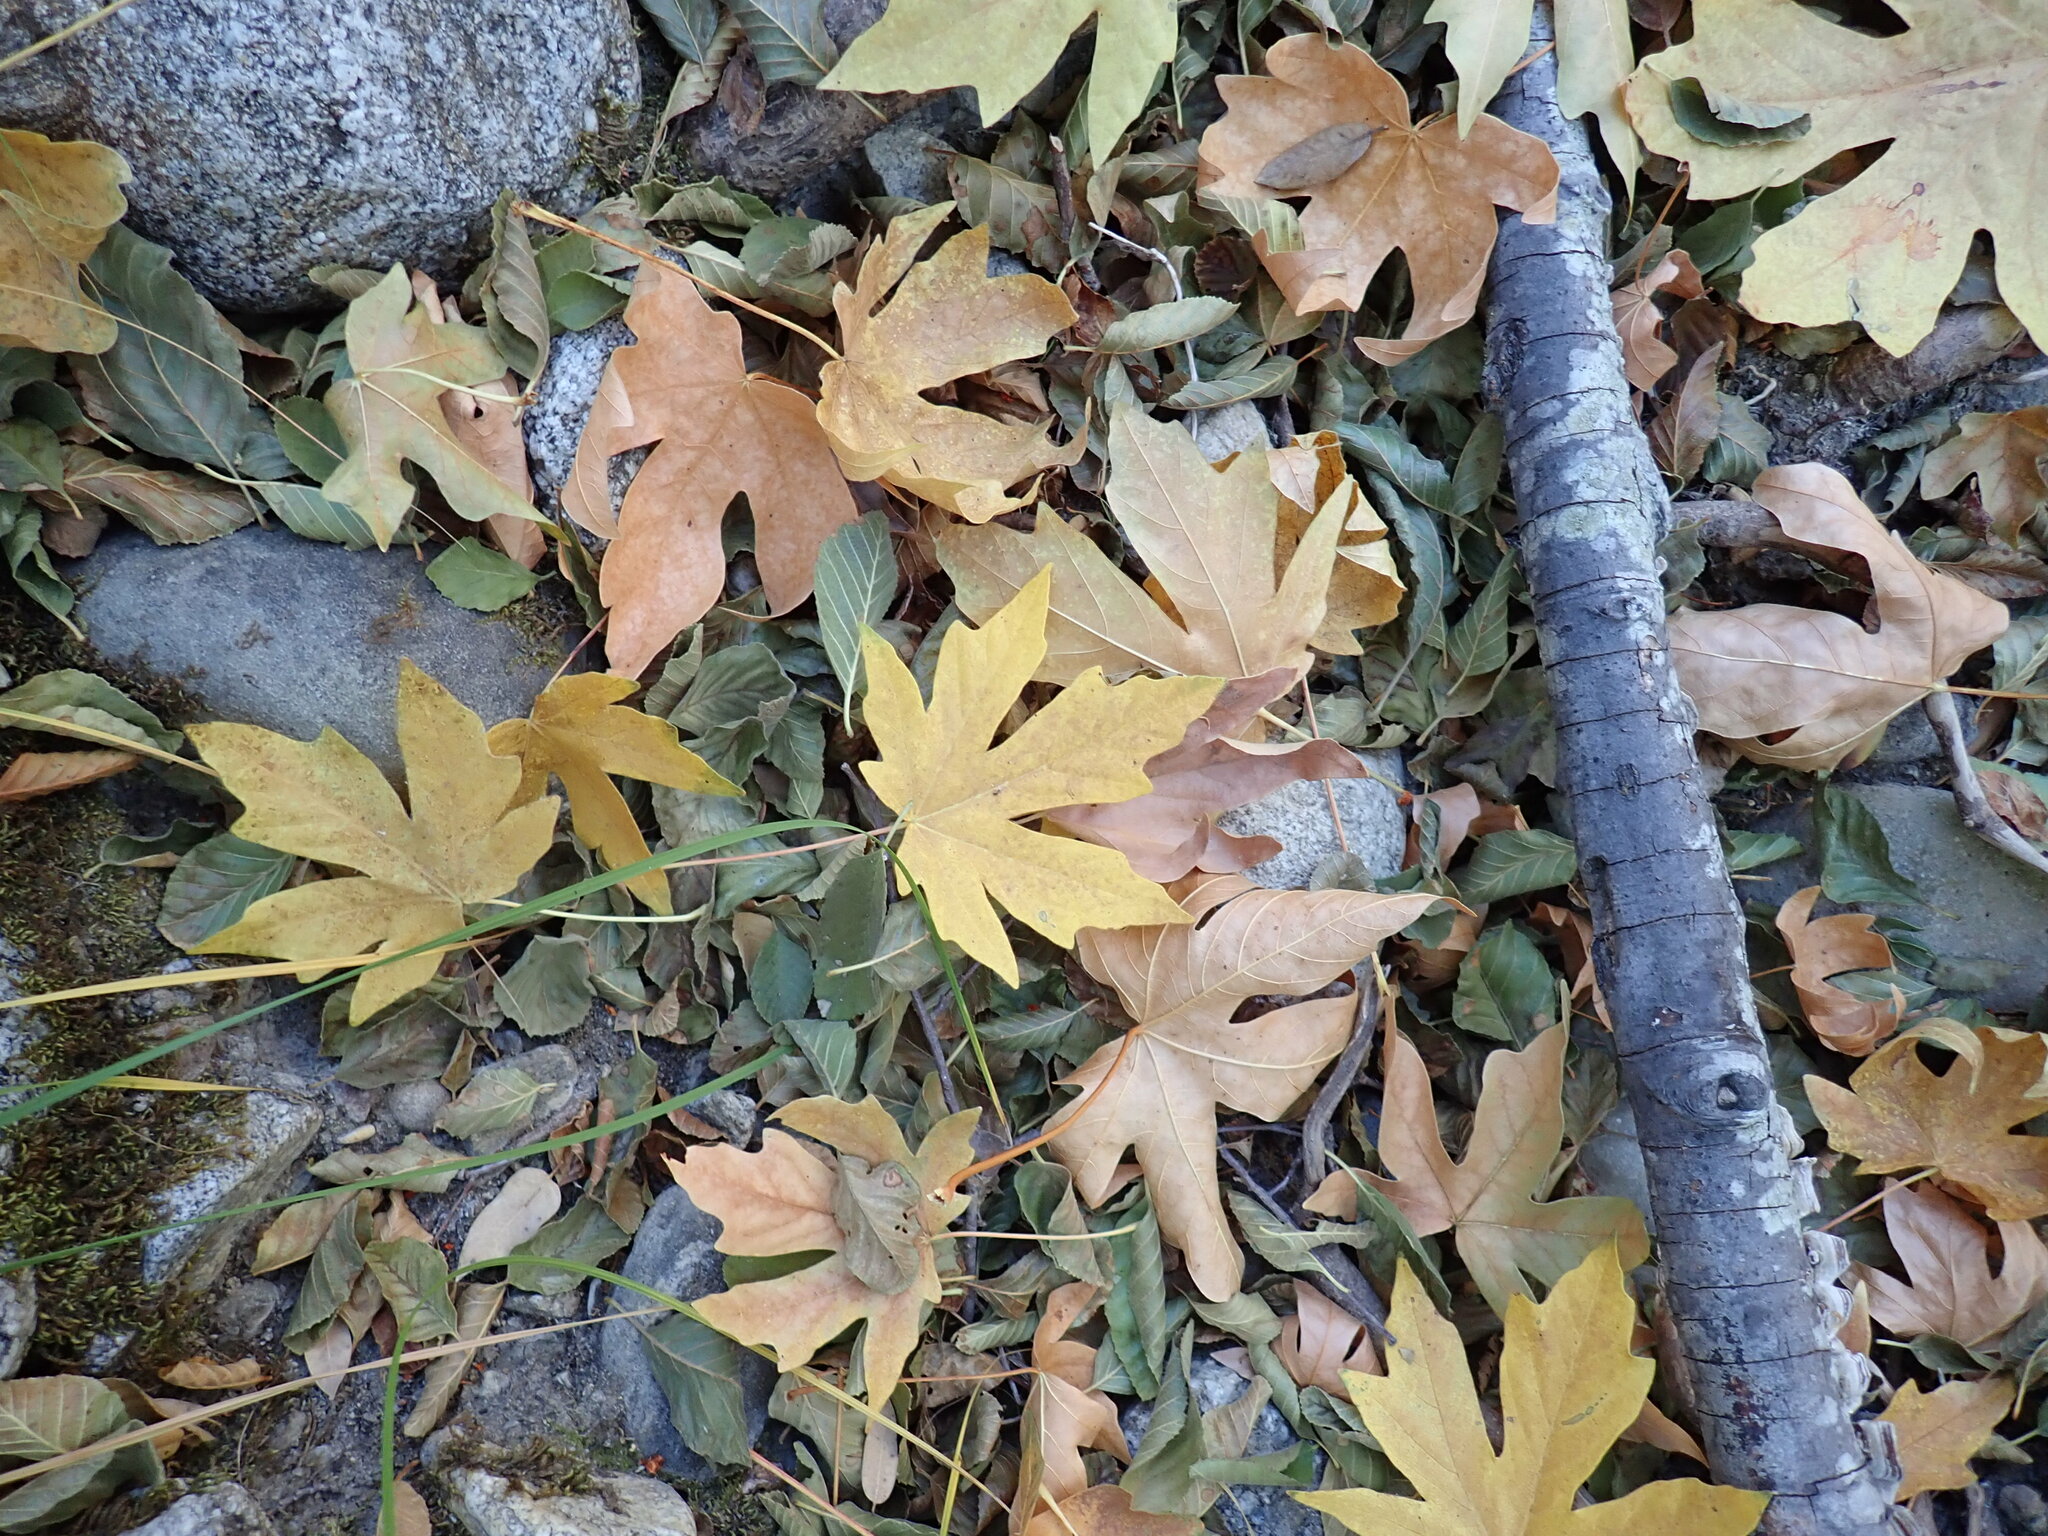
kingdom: Plantae
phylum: Tracheophyta
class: Magnoliopsida
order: Sapindales
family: Sapindaceae
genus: Acer
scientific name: Acer macrophyllum
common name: Oregon maple
